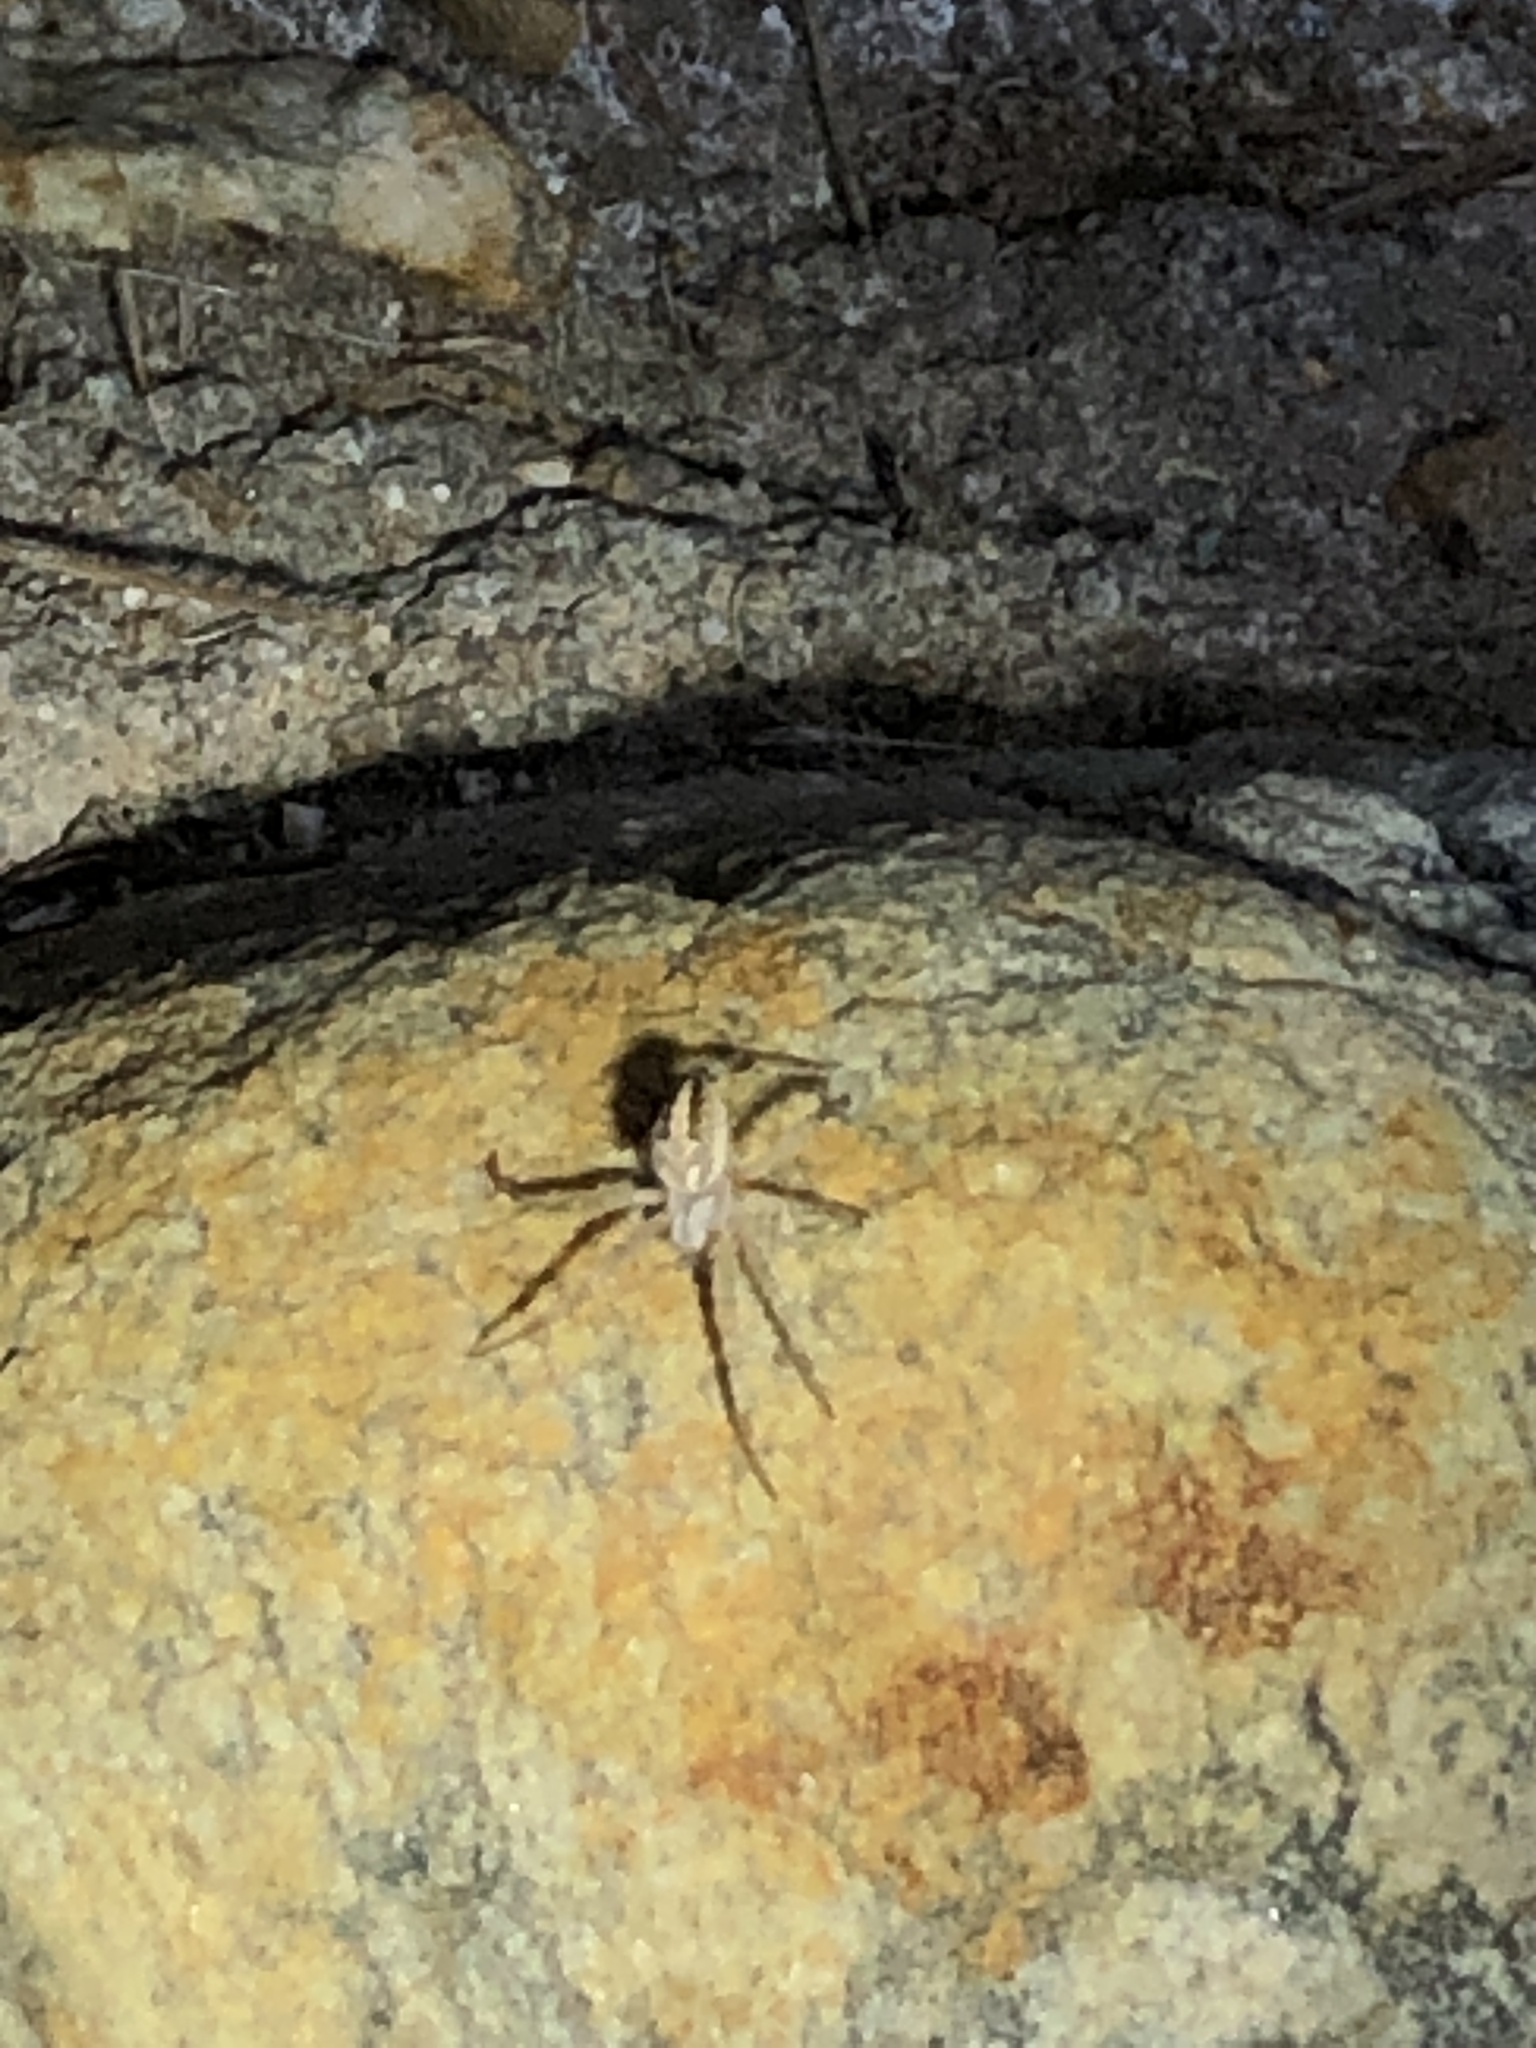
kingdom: Animalia
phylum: Arthropoda
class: Arachnida
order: Araneae
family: Araneidae
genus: Neoscona
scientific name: Neoscona oaxacensis
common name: Orb weavers
